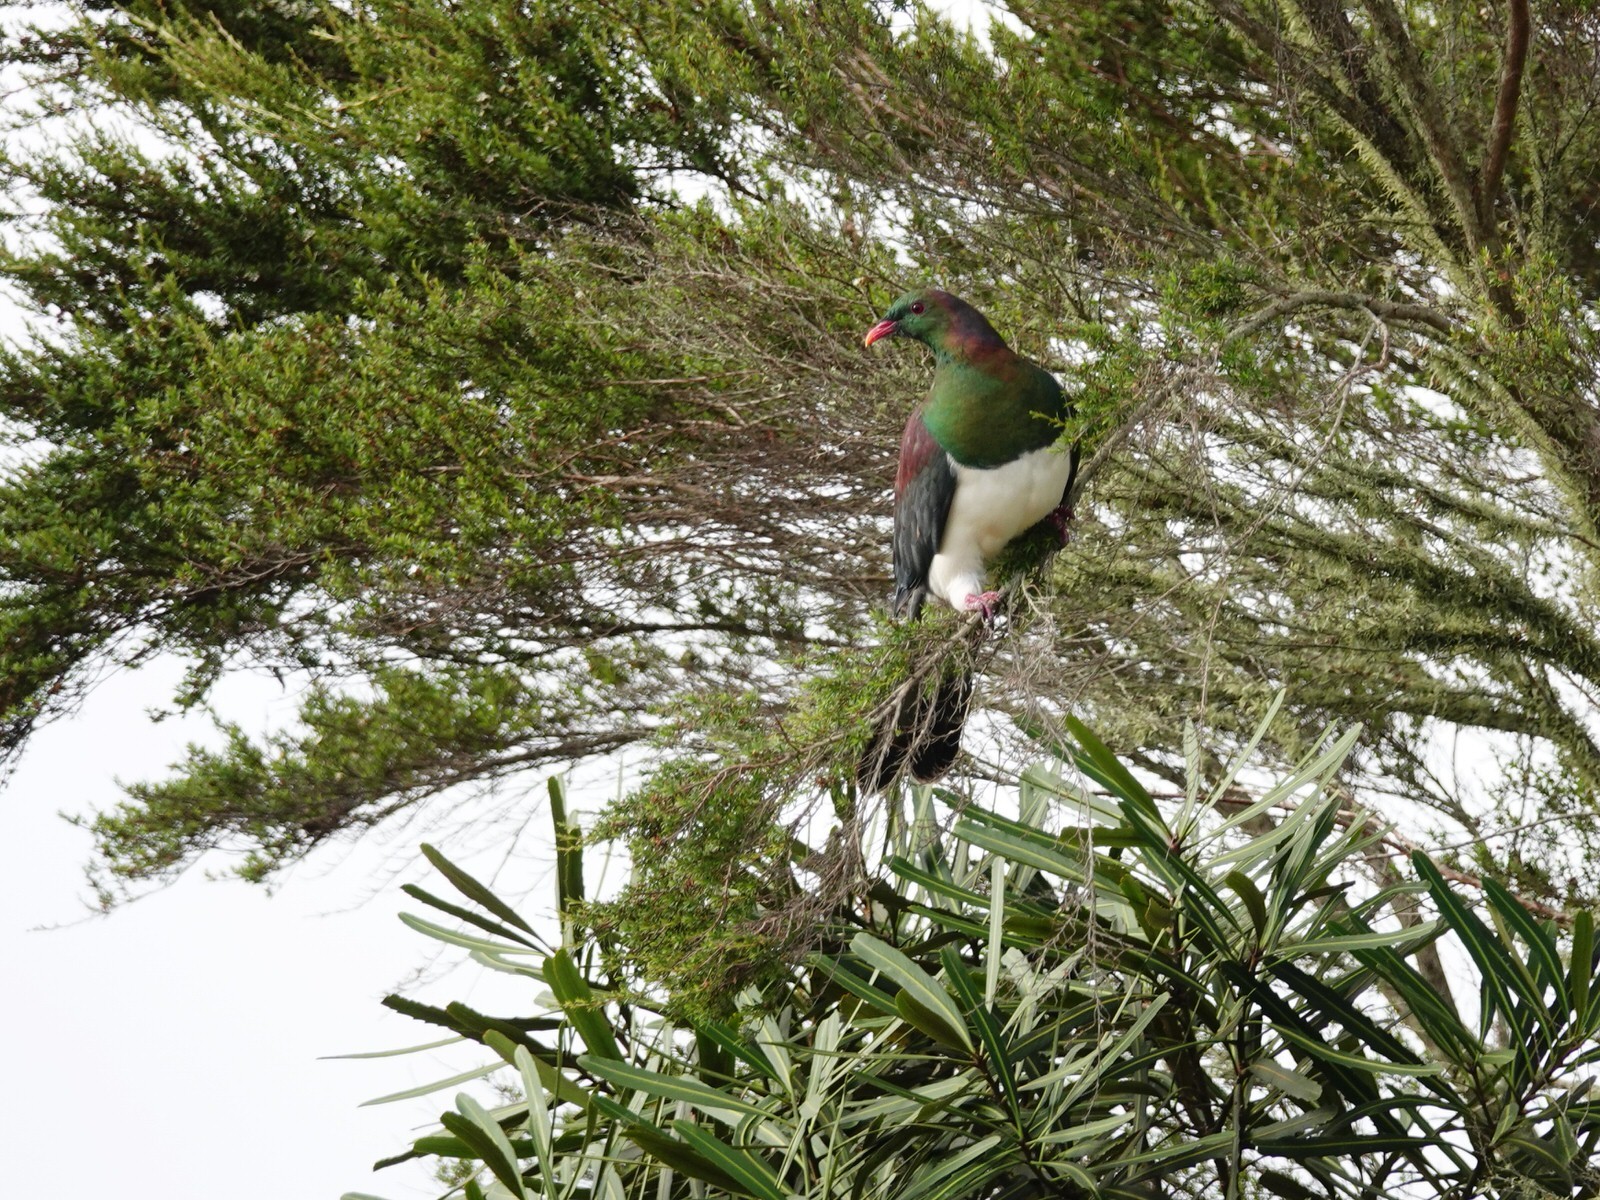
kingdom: Animalia
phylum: Chordata
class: Aves
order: Columbiformes
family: Columbidae
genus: Hemiphaga
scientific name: Hemiphaga novaeseelandiae
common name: New zealand pigeon
